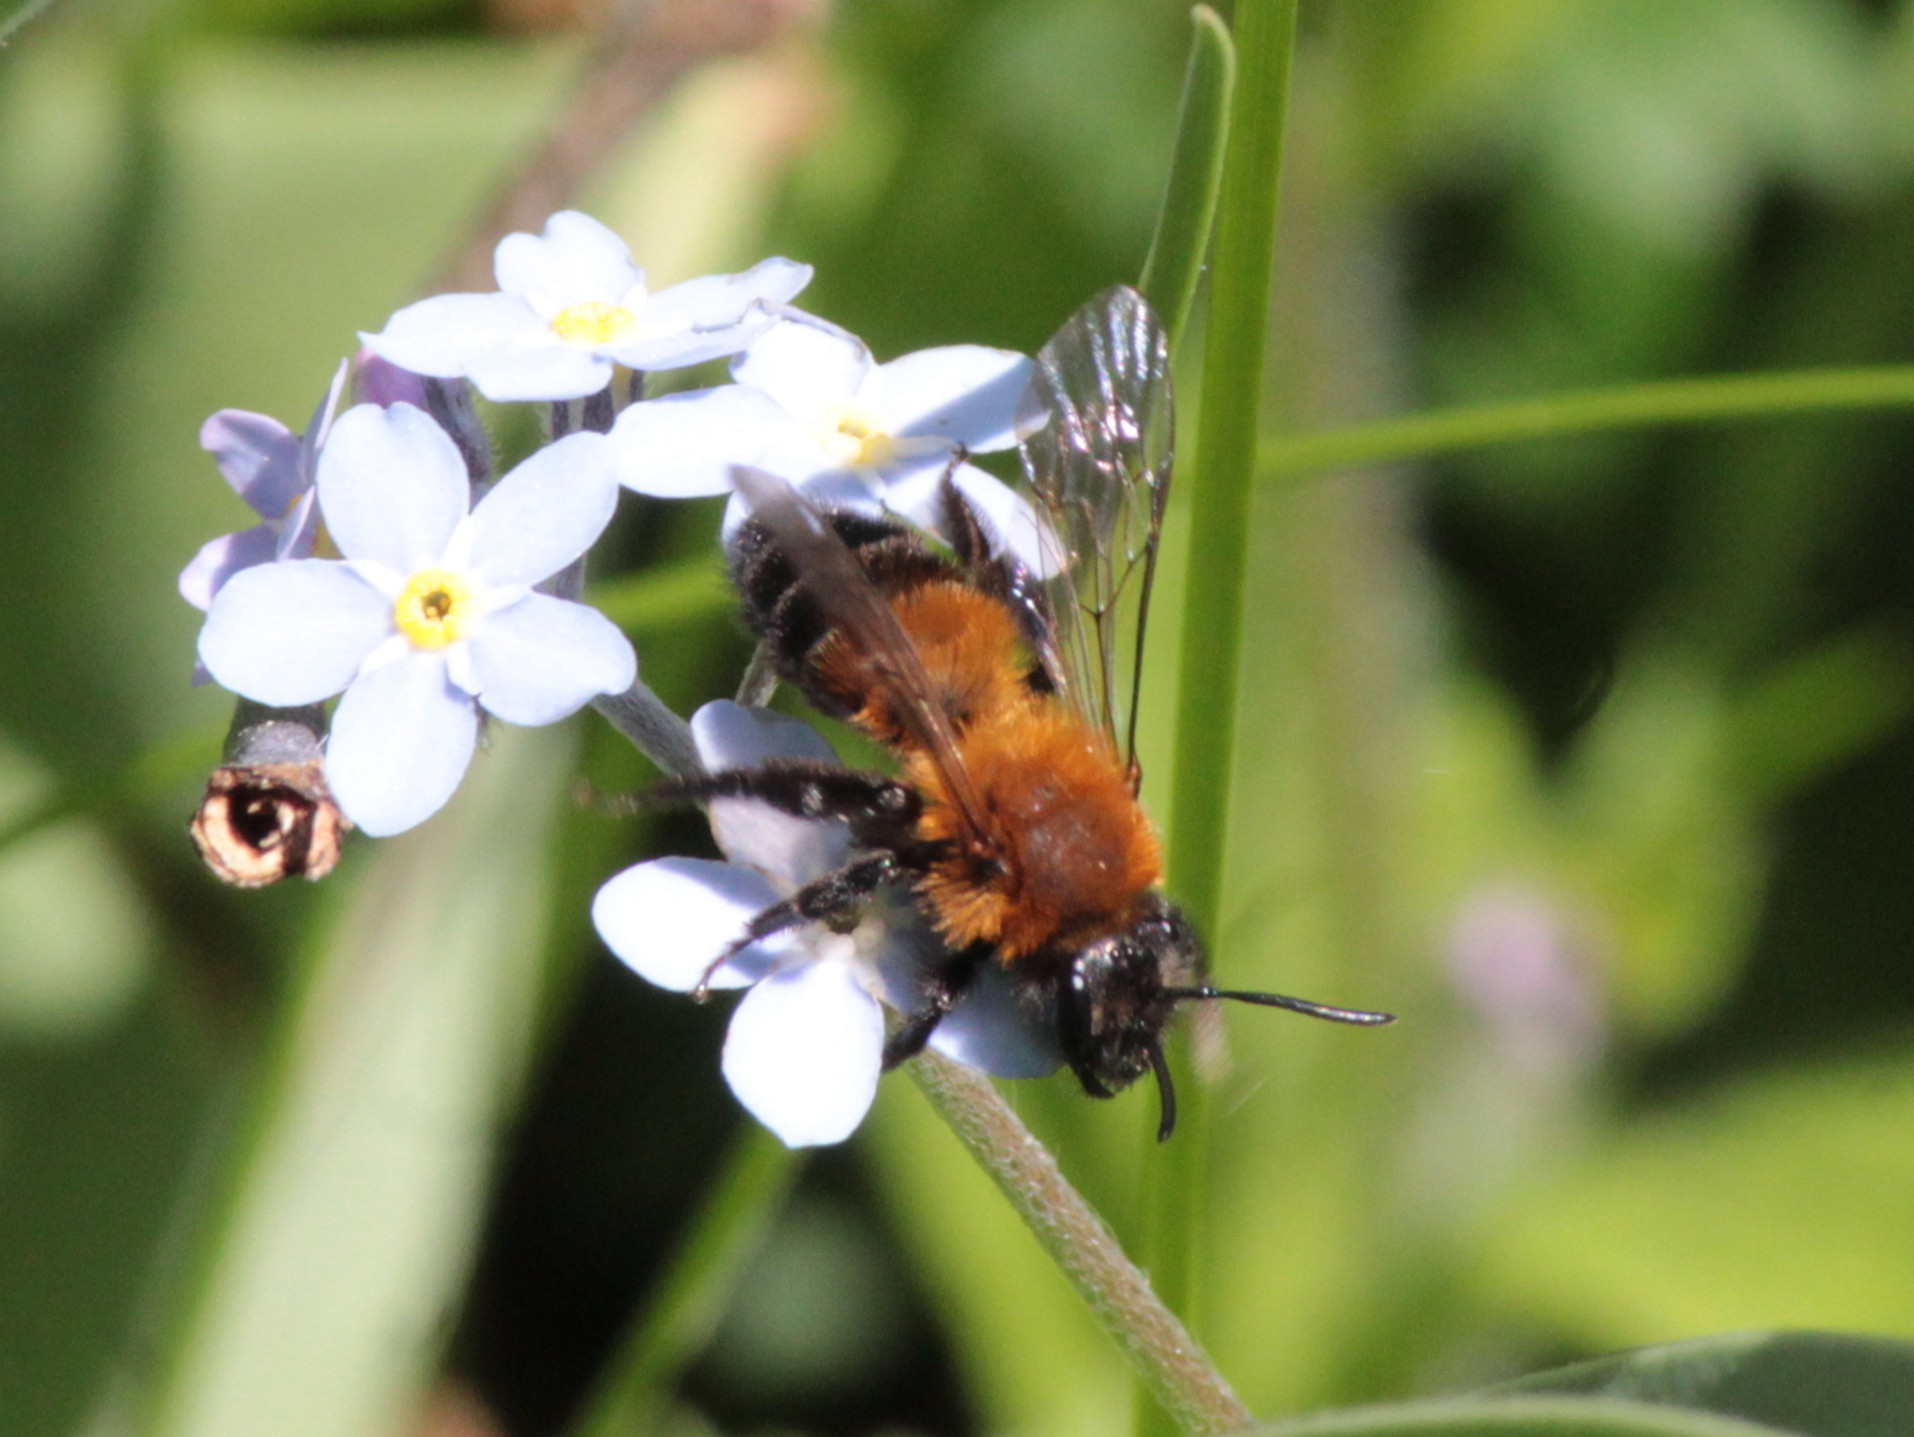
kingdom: Animalia
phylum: Arthropoda
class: Insecta
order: Hymenoptera
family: Andrenidae
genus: Andrena
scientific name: Andrena milwaukeensis
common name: Milwaukee mining bee
